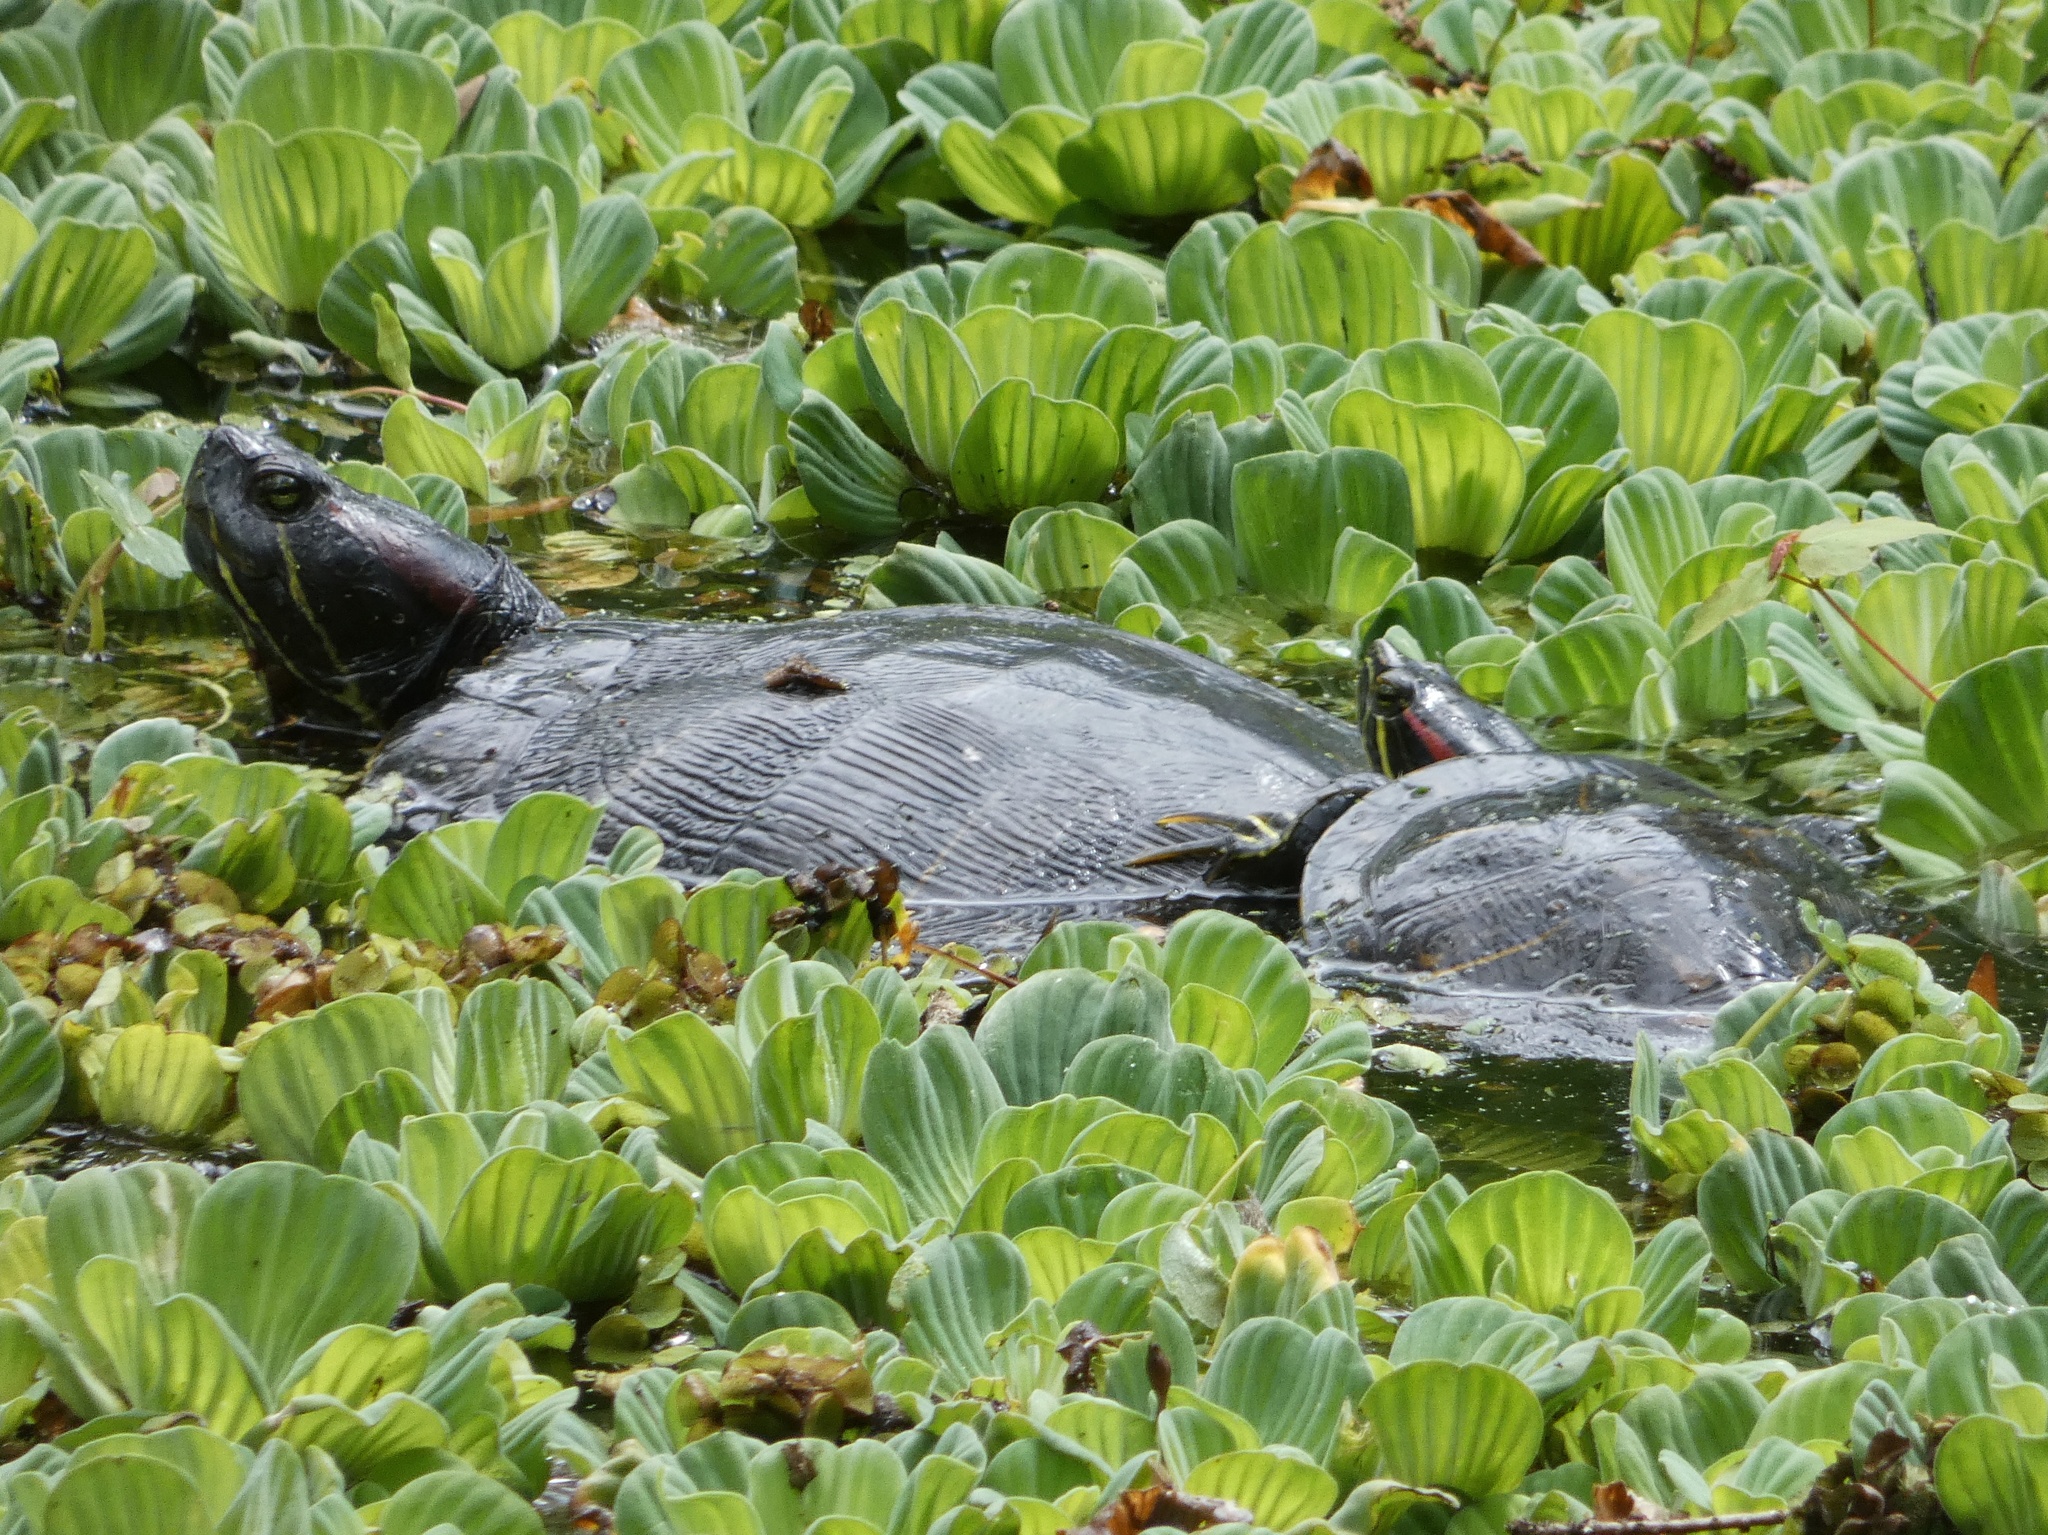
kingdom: Animalia
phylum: Chordata
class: Testudines
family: Emydidae
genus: Trachemys
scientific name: Trachemys scripta
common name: Slider
